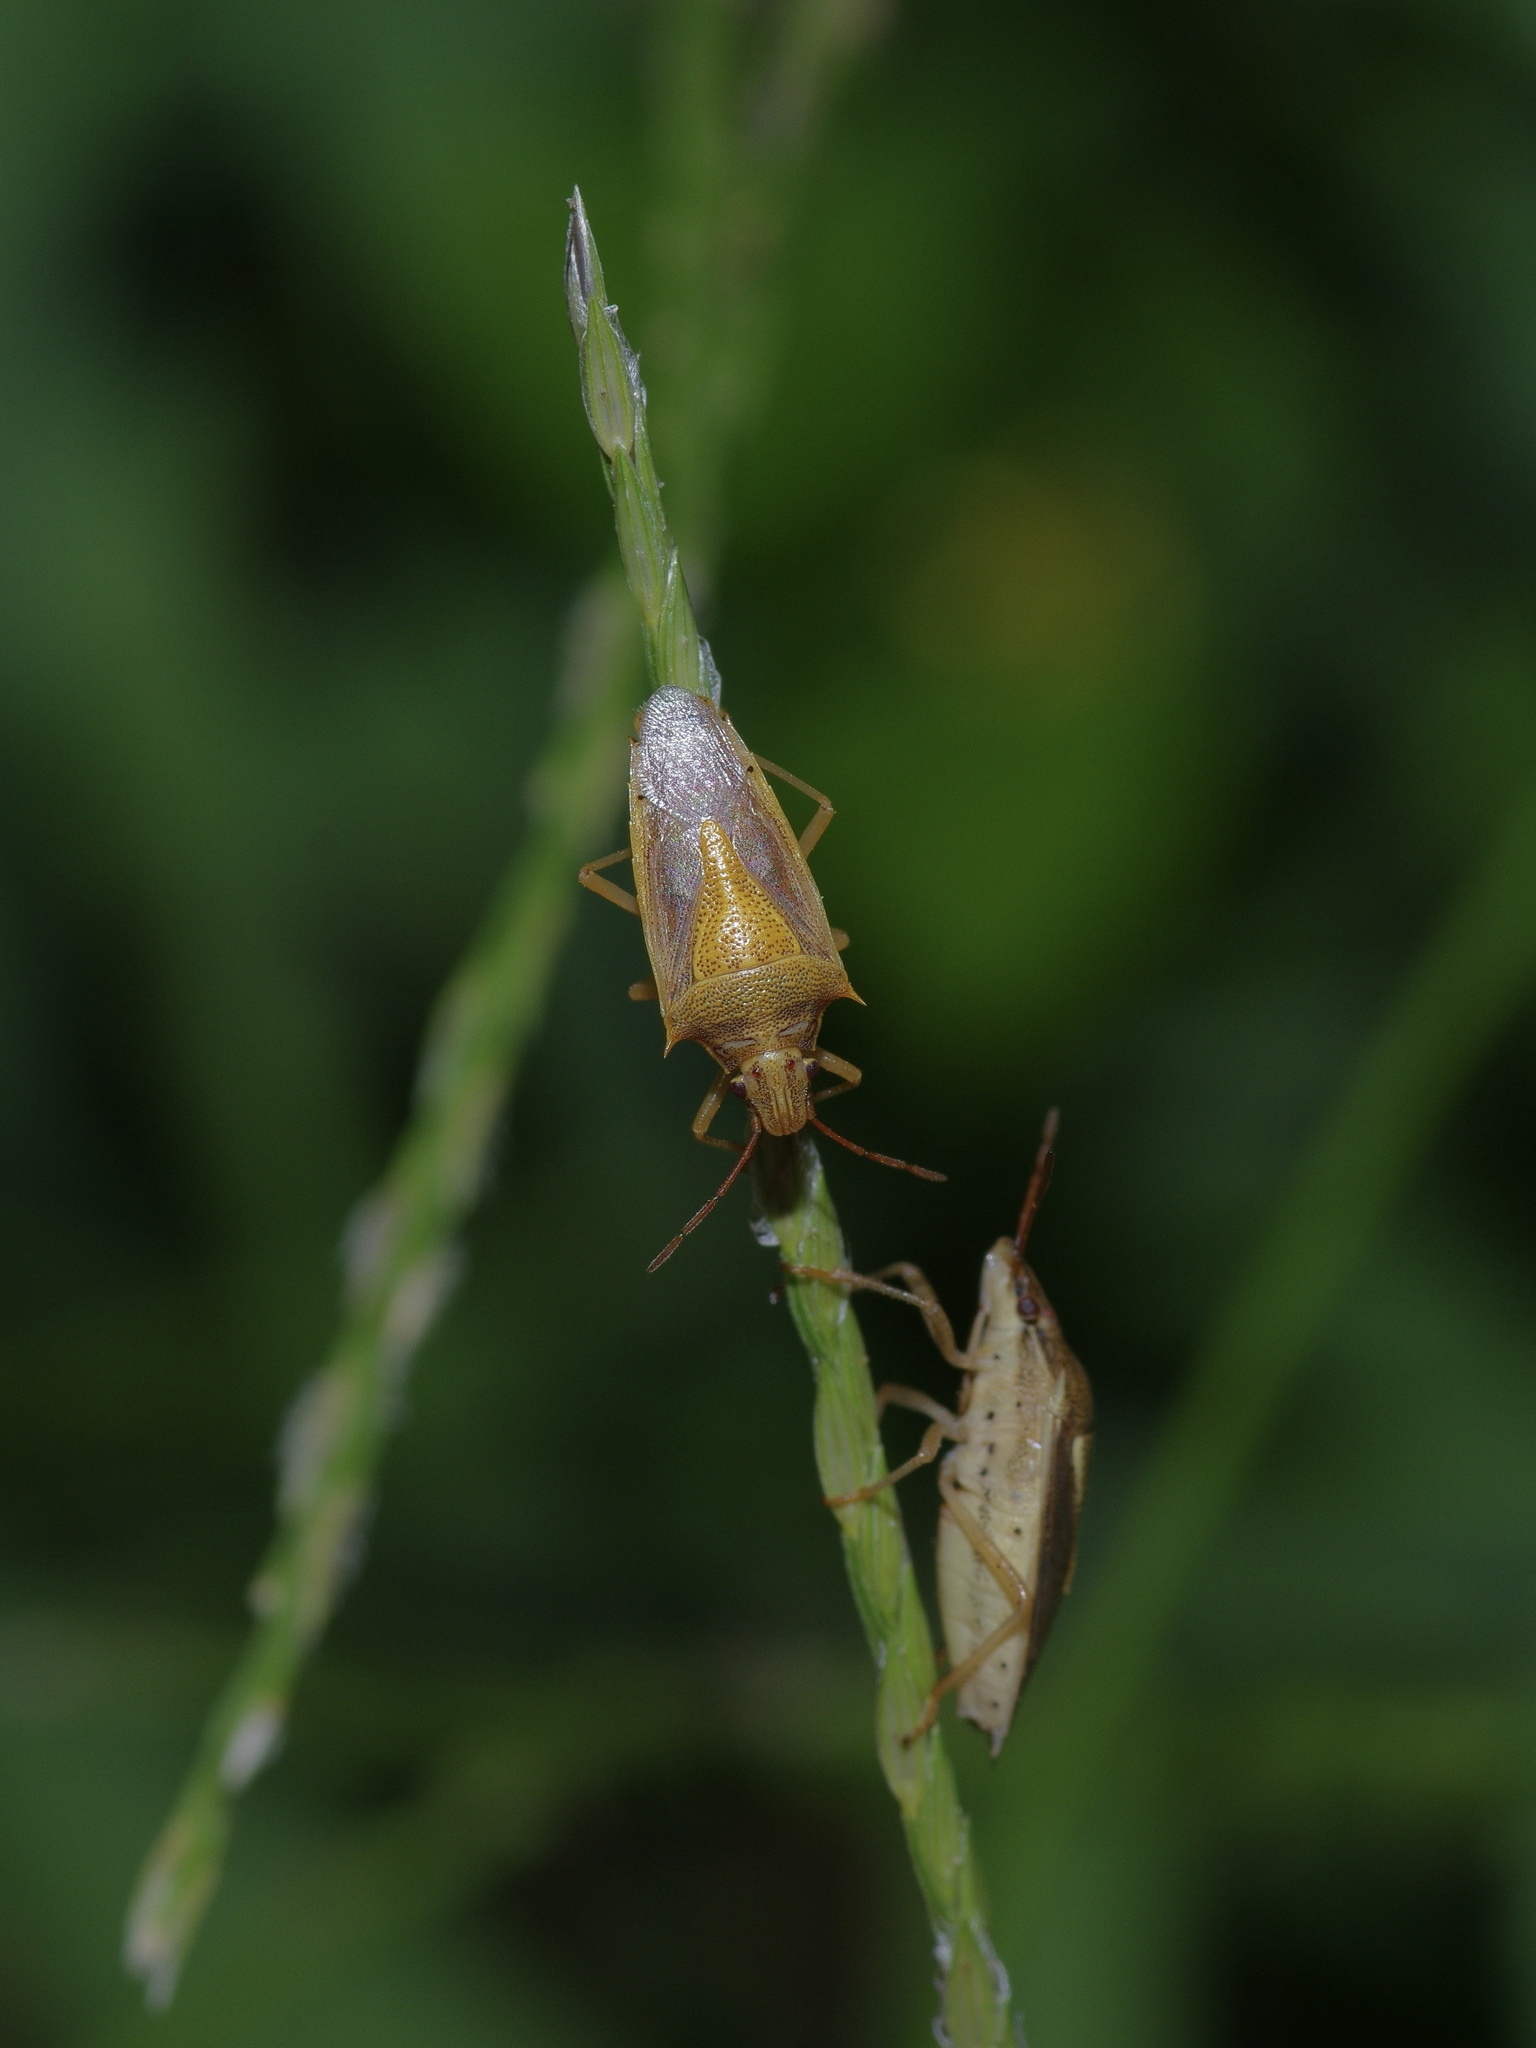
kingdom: Animalia
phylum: Arthropoda
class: Insecta
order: Hemiptera
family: Pentatomidae
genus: Oebalus
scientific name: Oebalus pugnax
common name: Rice stink bug
